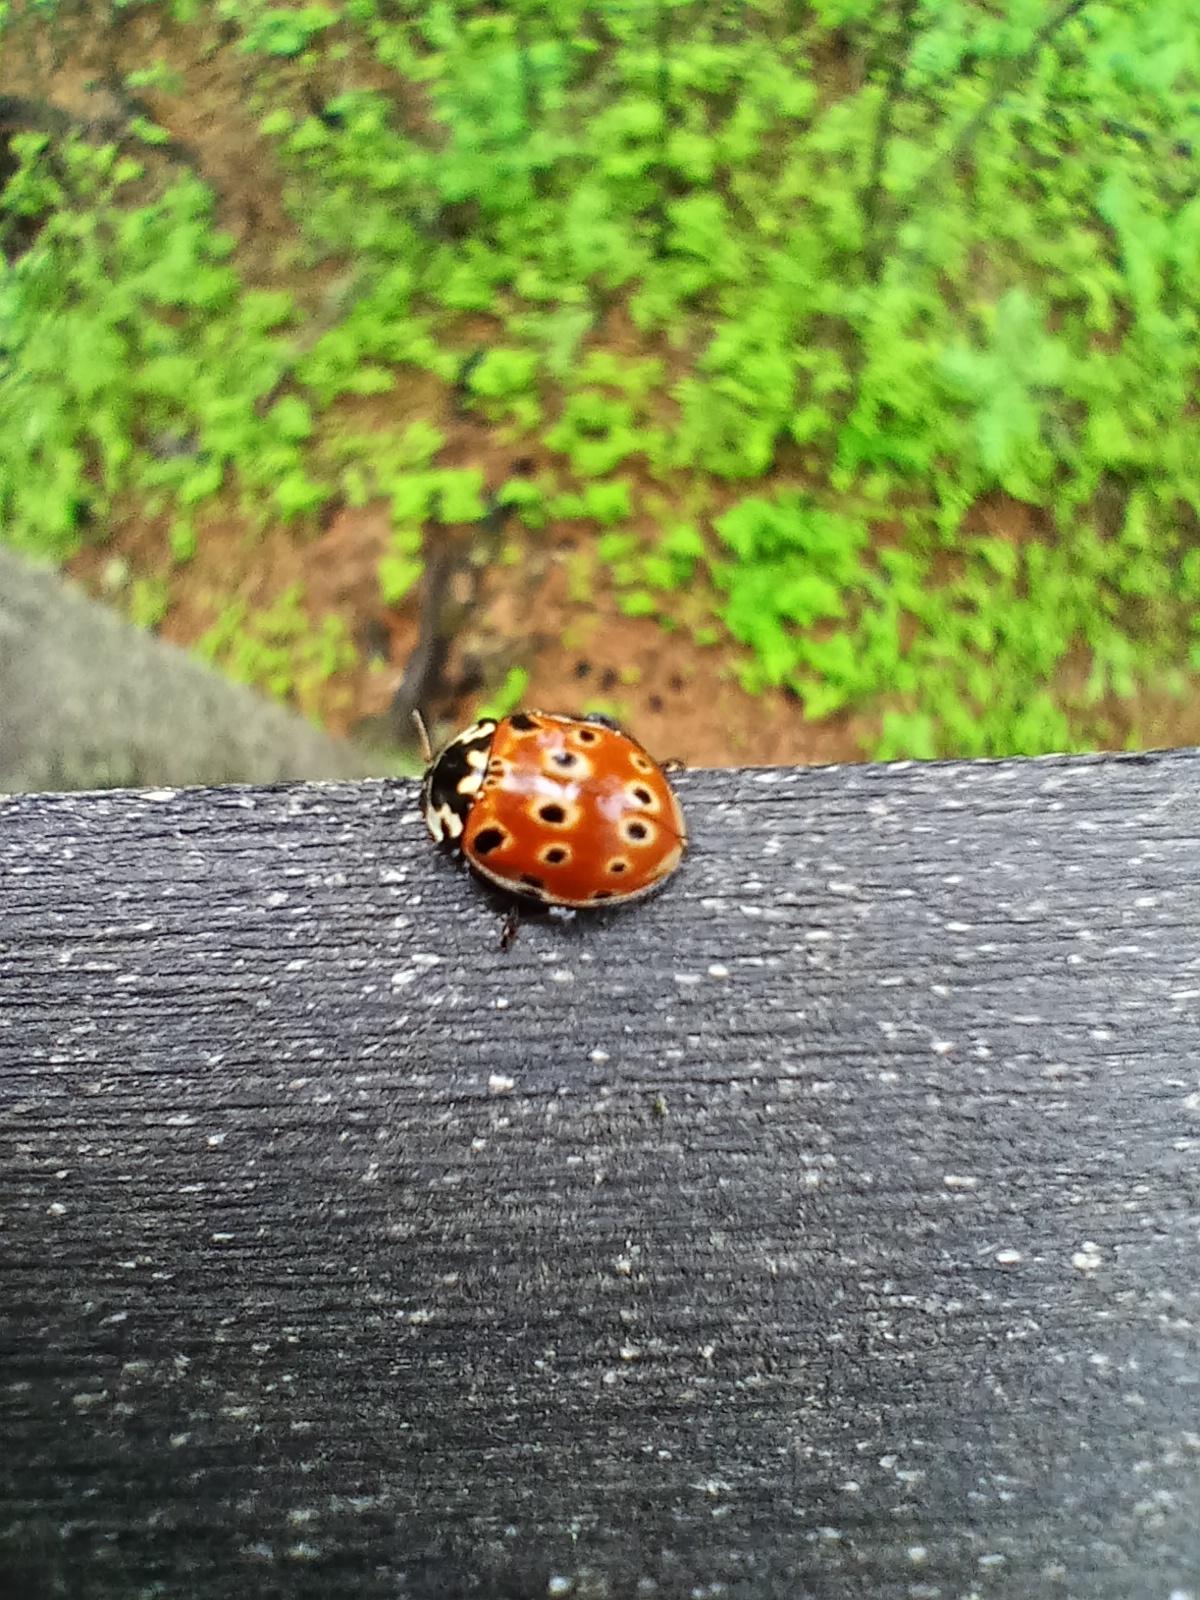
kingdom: Animalia
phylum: Arthropoda
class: Insecta
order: Coleoptera
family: Coccinellidae
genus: Anatis
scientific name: Anatis ocellata
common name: Eyed ladybird
